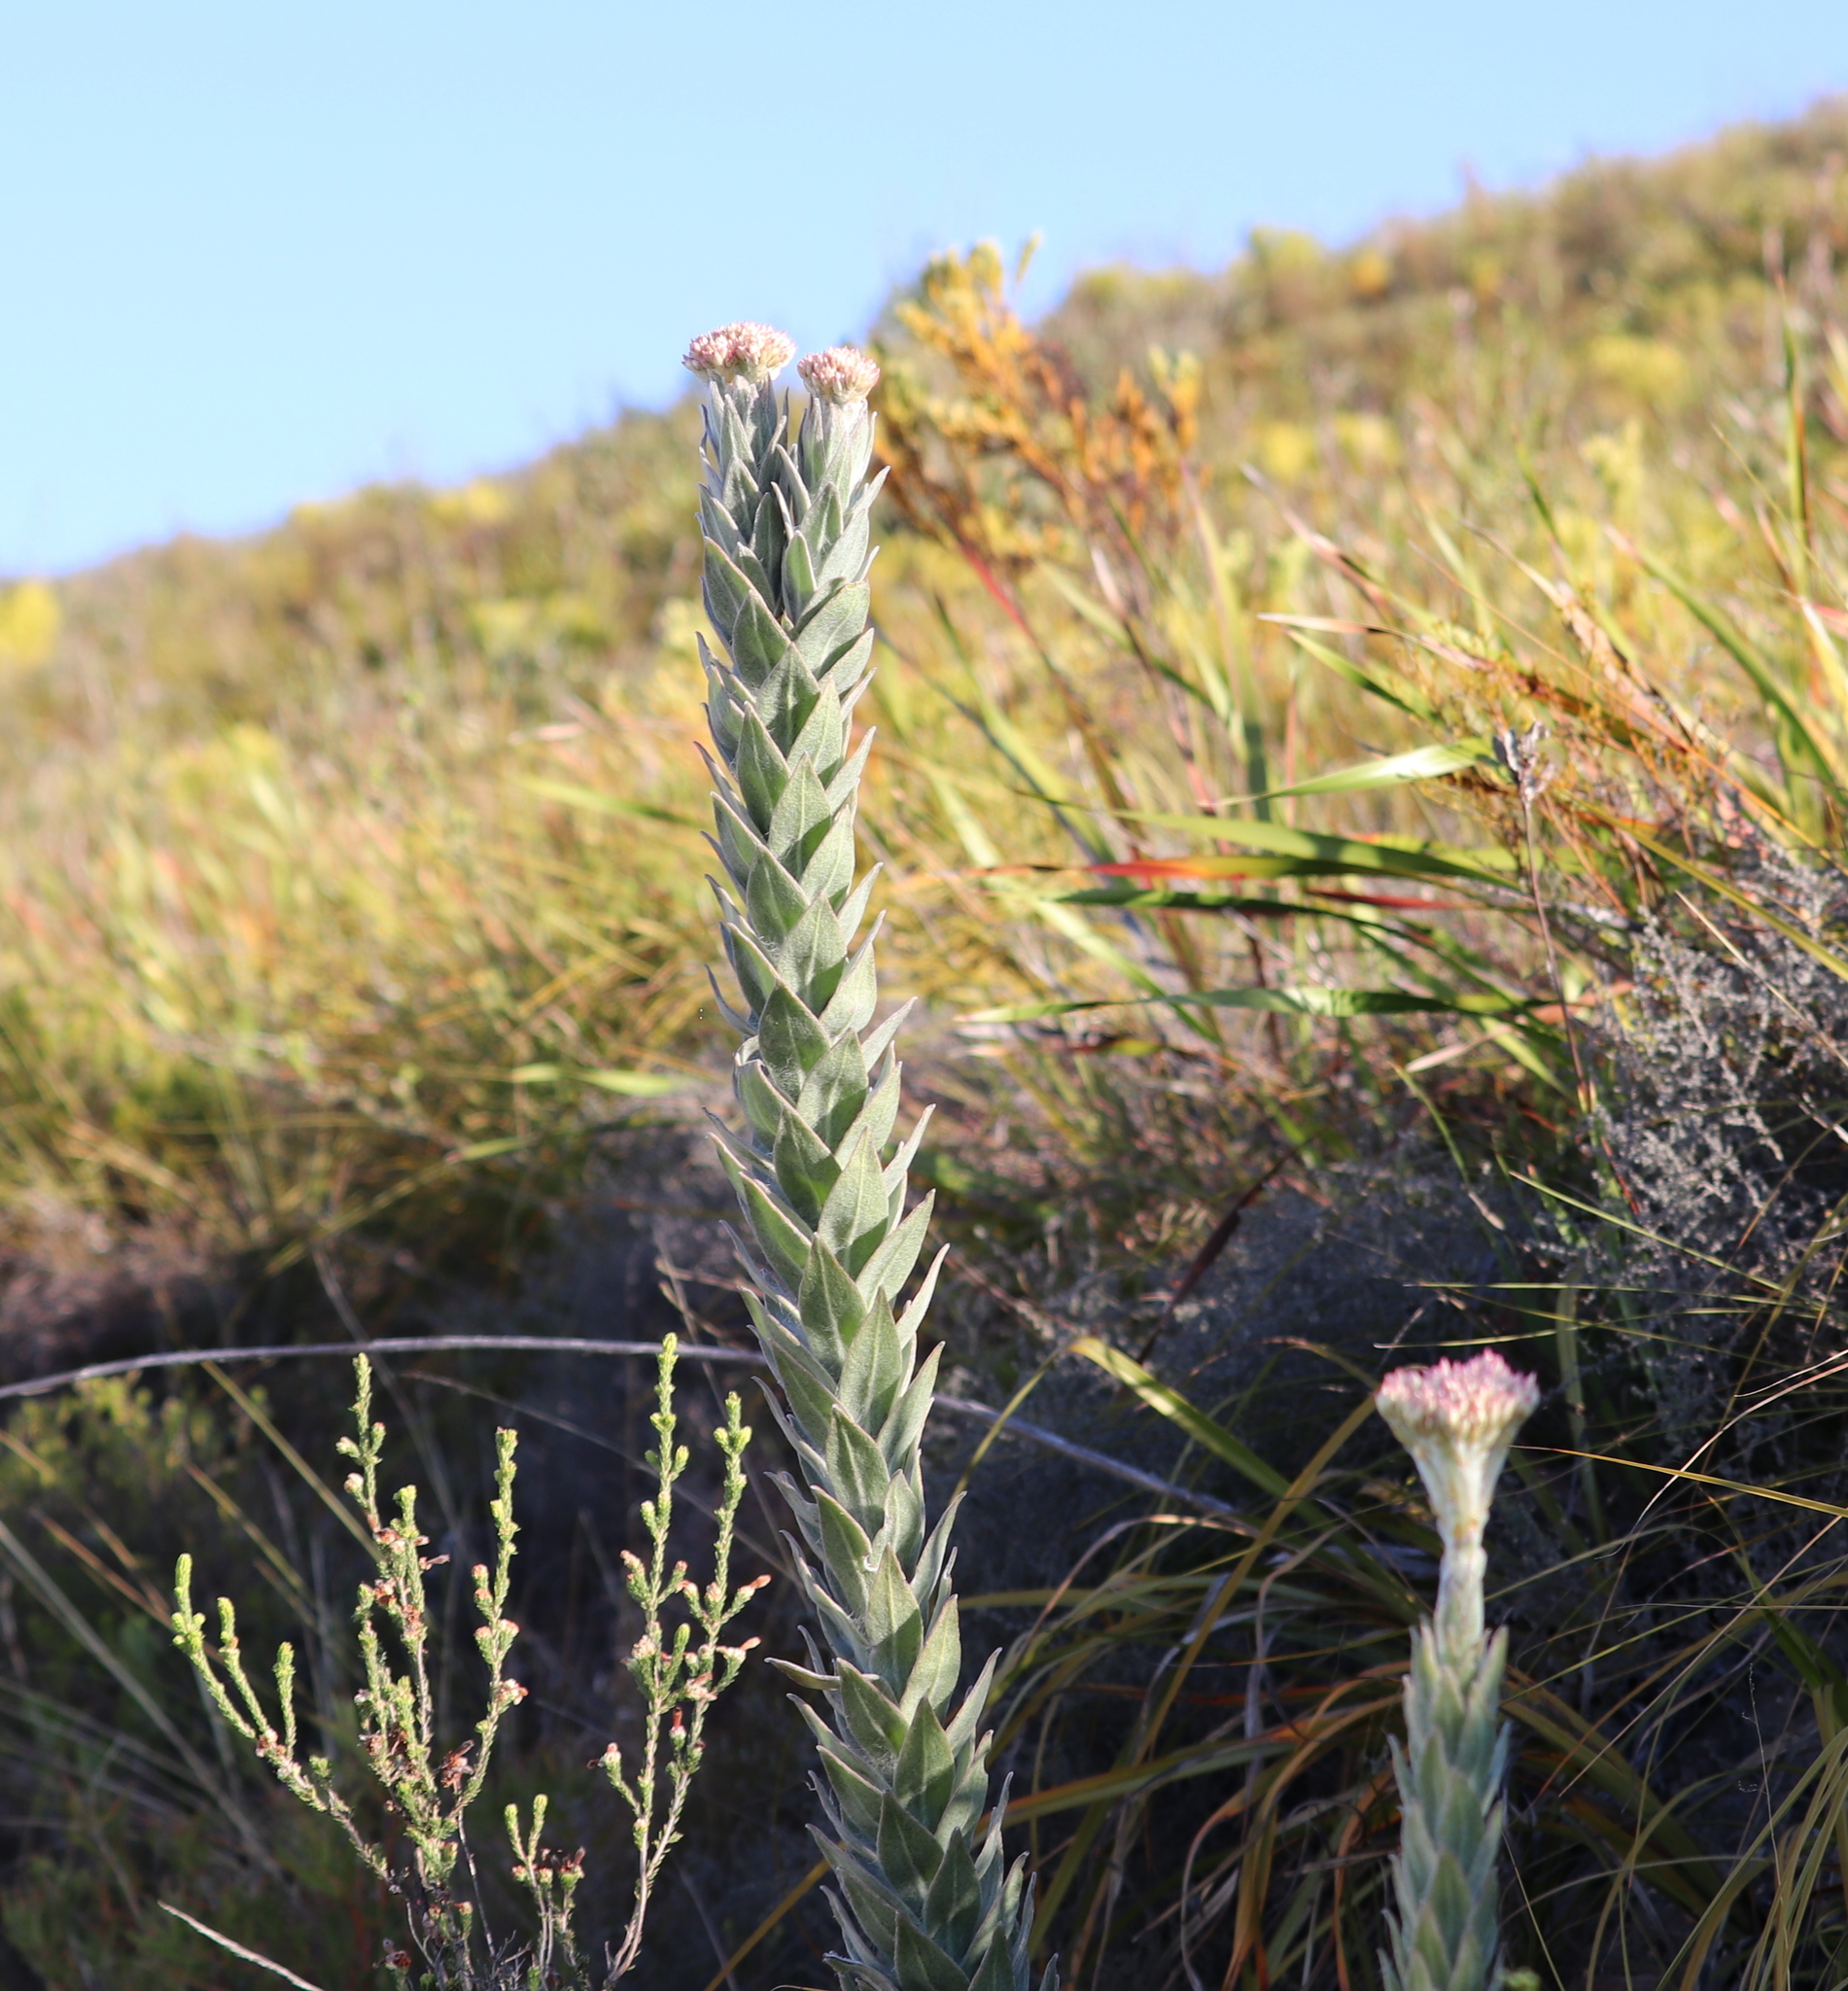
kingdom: Plantae
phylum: Tracheophyta
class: Magnoliopsida
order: Asterales
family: Asteraceae
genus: Syncarpha
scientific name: Syncarpha milleflora
